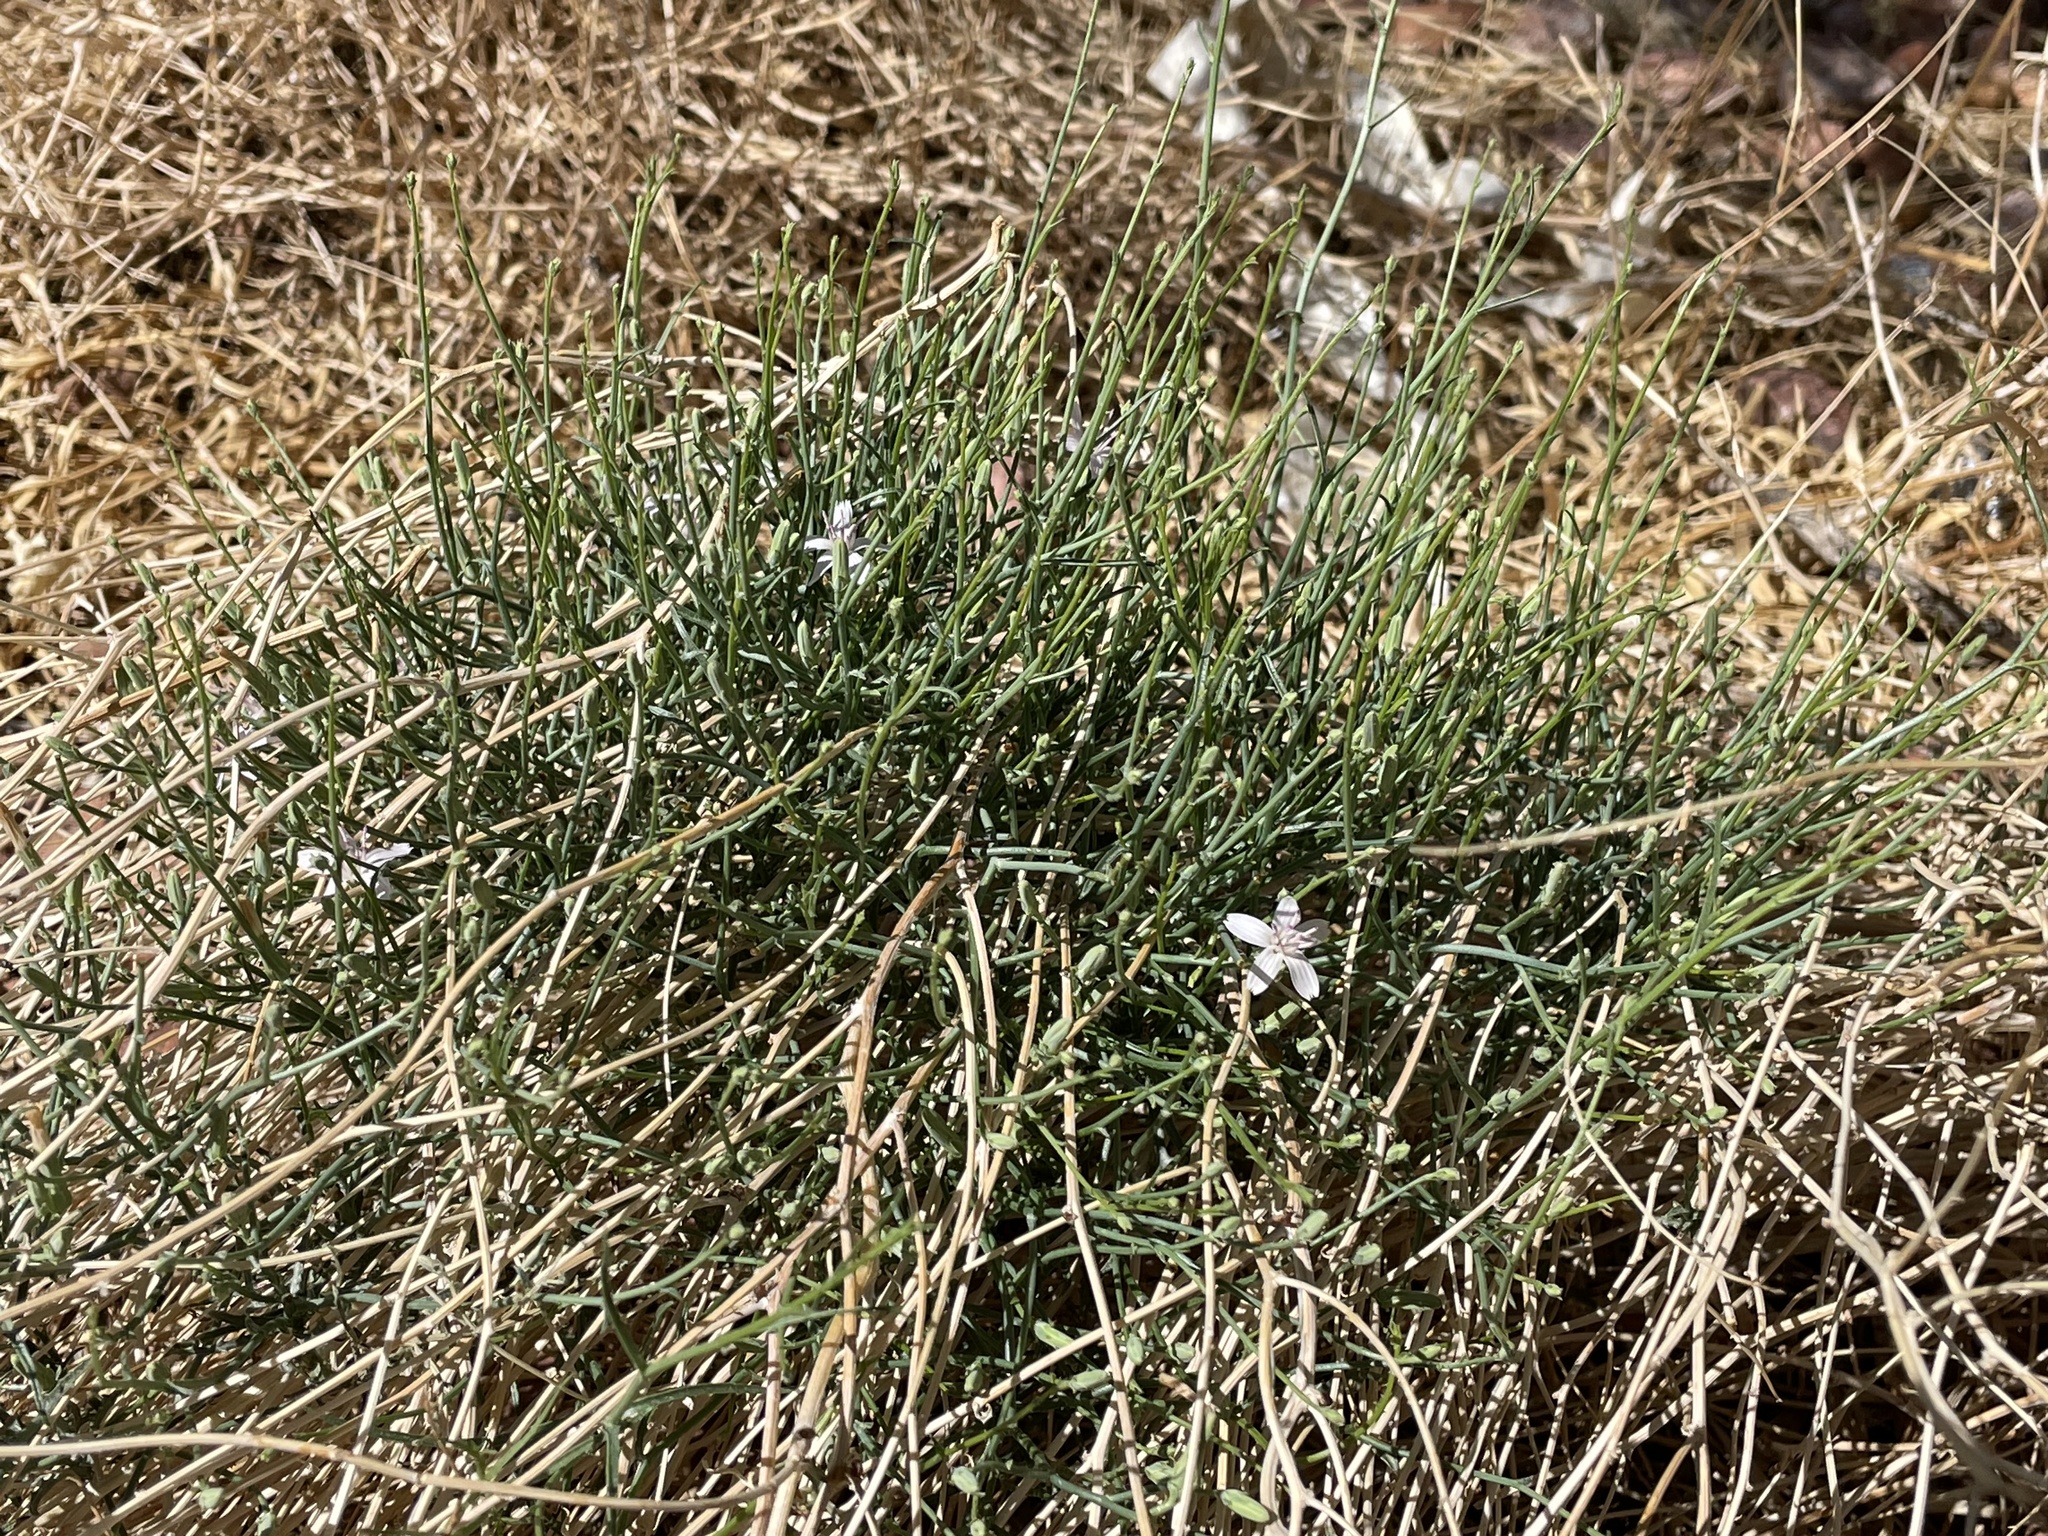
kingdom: Plantae
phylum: Tracheophyta
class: Magnoliopsida
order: Asterales
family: Asteraceae
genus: Stephanomeria
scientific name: Stephanomeria pauciflora
